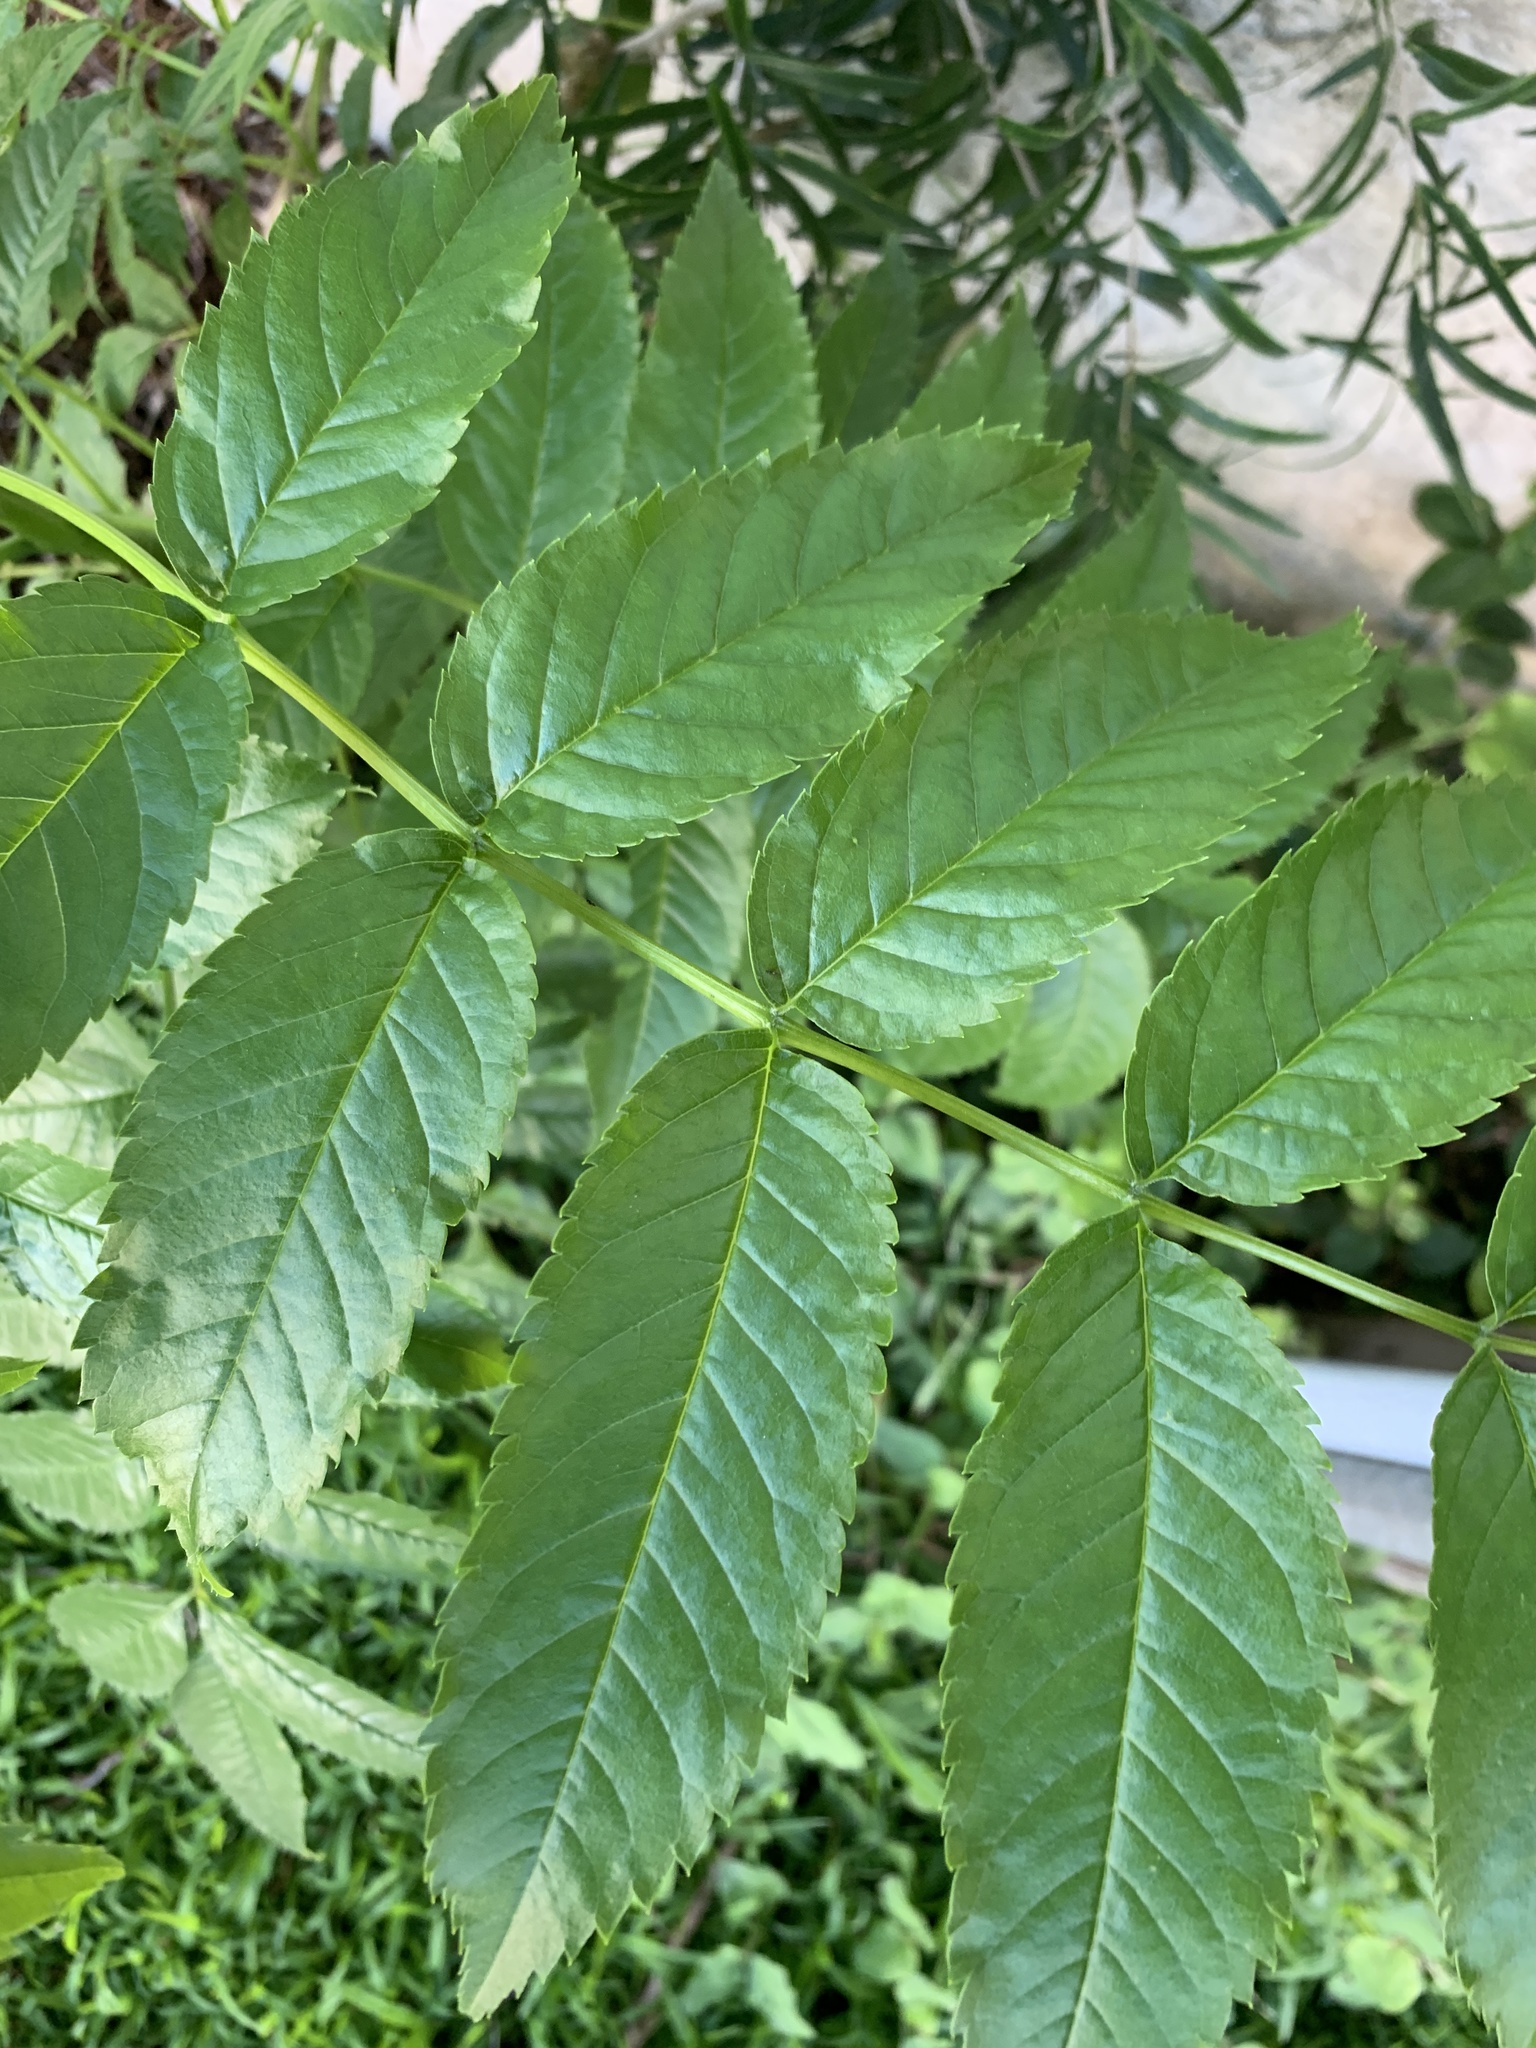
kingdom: Plantae
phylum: Tracheophyta
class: Magnoliopsida
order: Lamiales
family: Bignoniaceae
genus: Tecoma
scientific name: Tecoma stans
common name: Yellow trumpetbush
